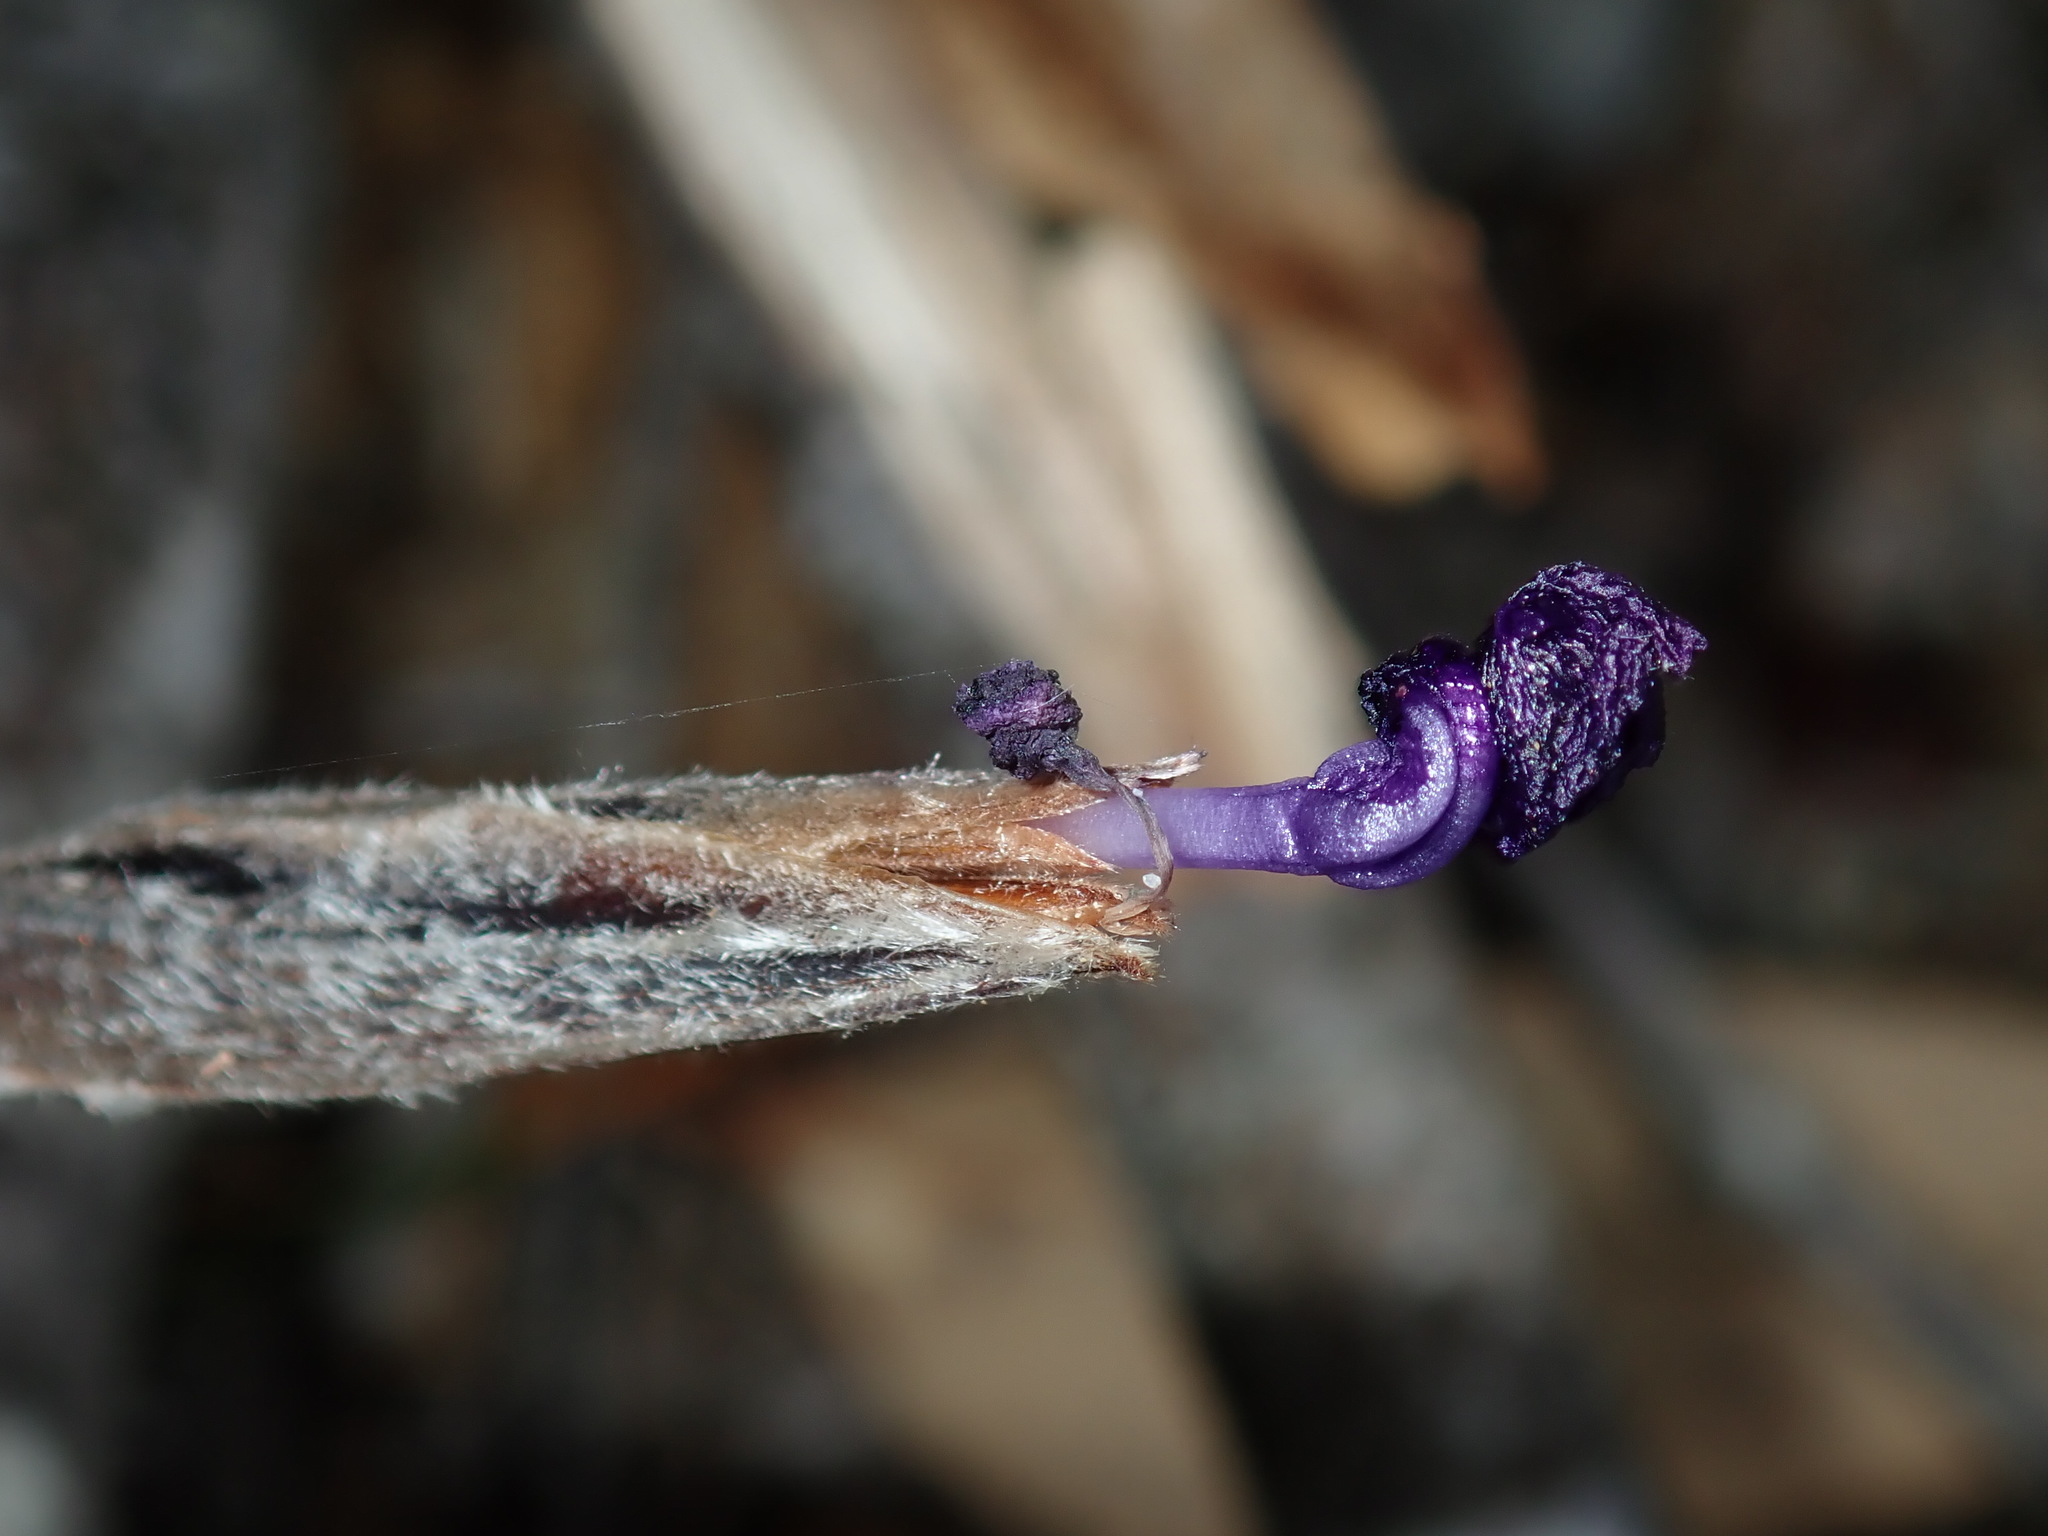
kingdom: Plantae
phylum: Tracheophyta
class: Liliopsida
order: Asparagales
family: Iridaceae
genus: Patersonia
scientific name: Patersonia sericea
